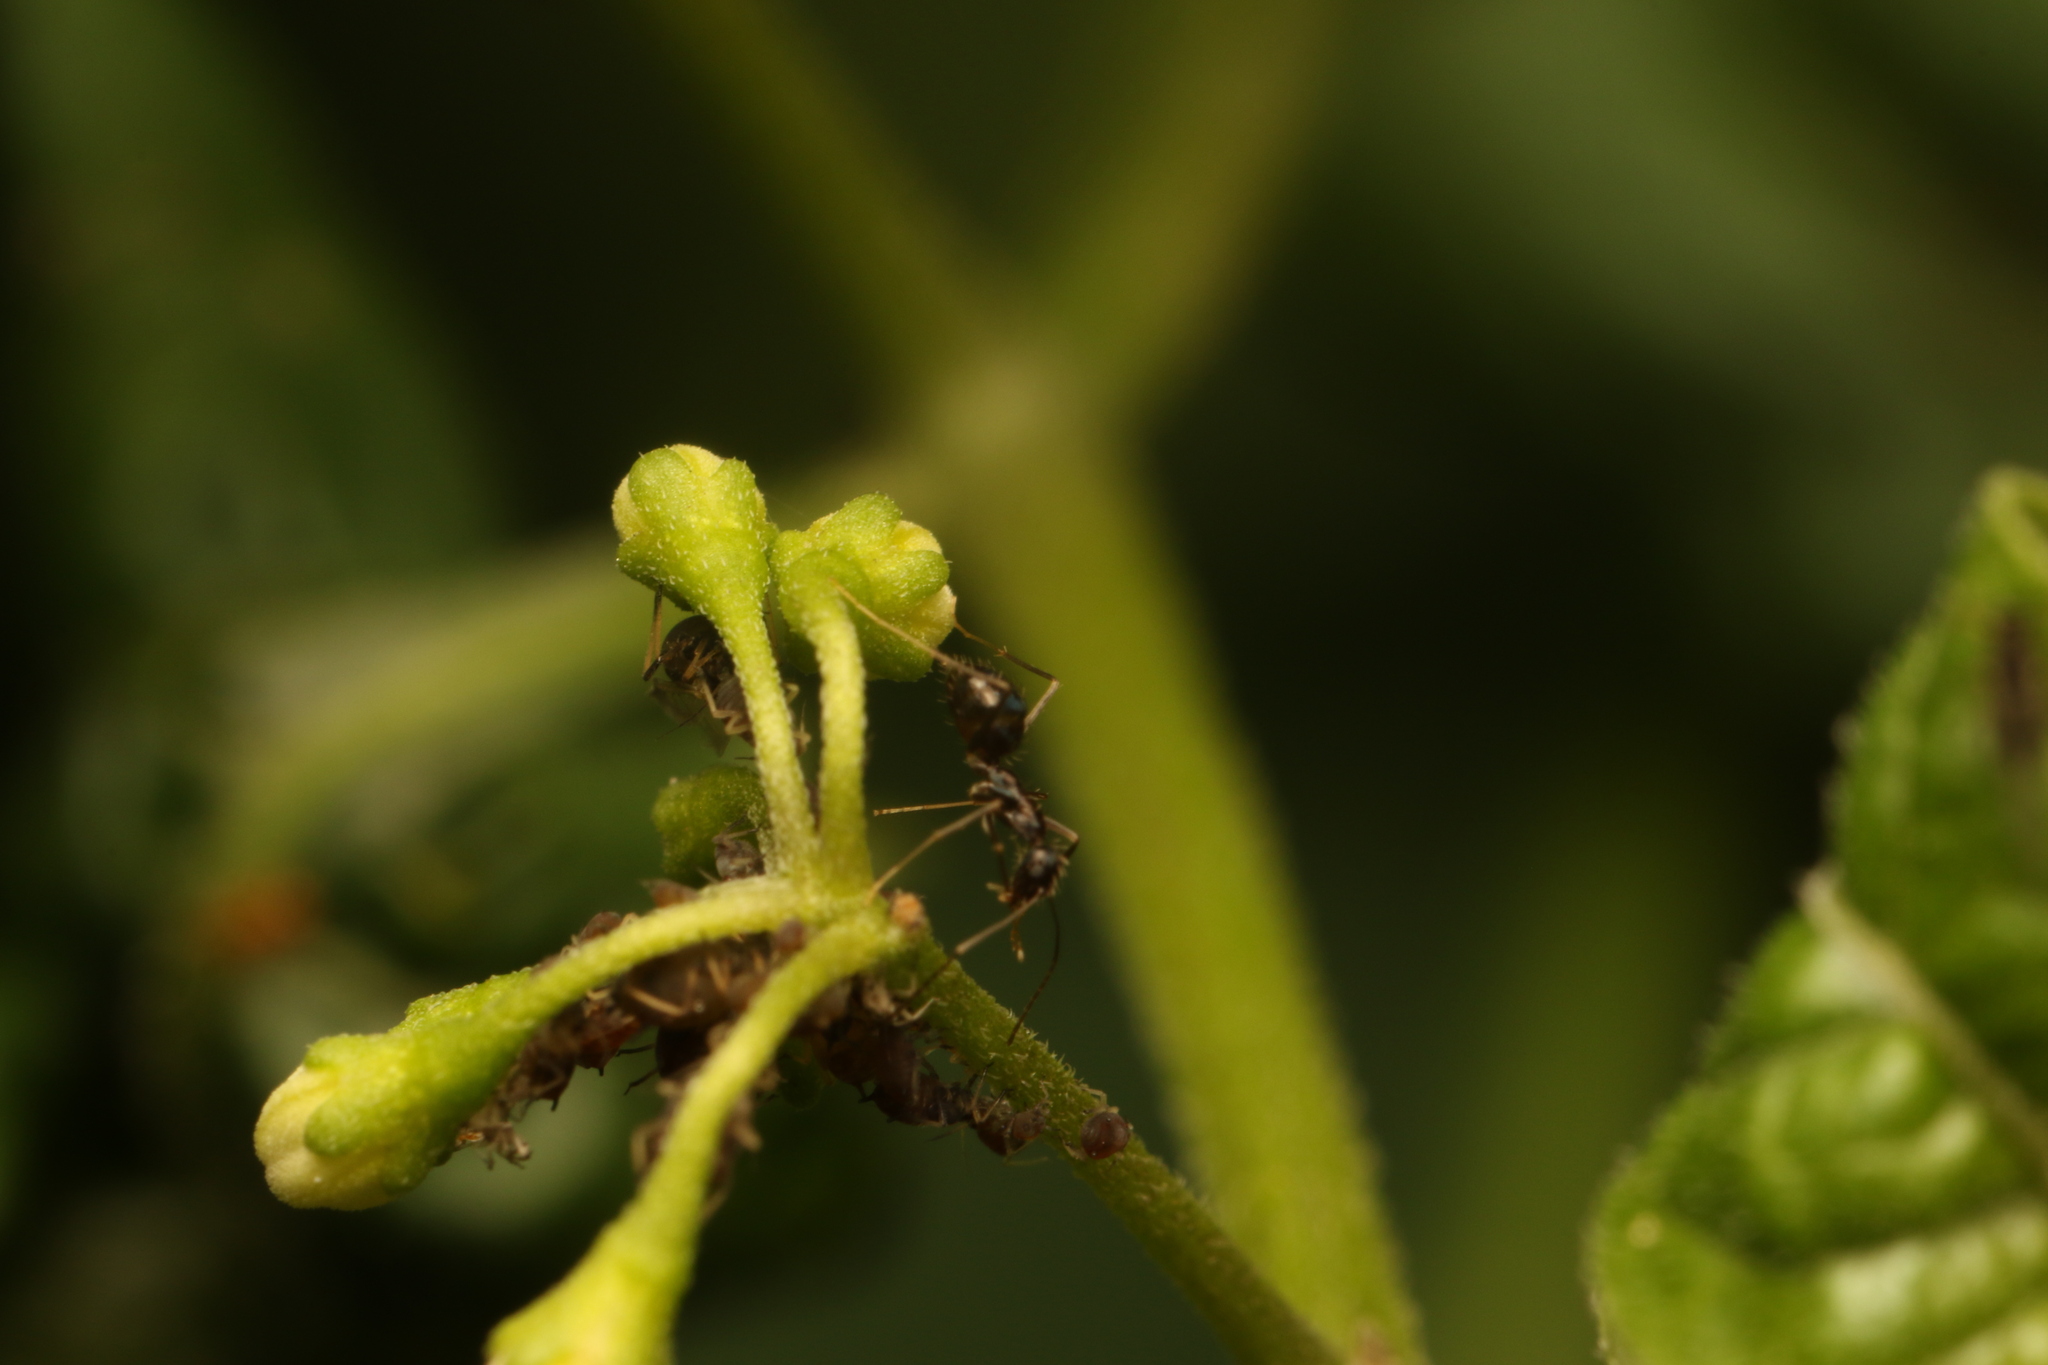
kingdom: Animalia
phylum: Arthropoda
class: Insecta
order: Hymenoptera
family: Formicidae
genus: Paratrechina
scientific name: Paratrechina longicornis
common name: Longhorned crazy ant
